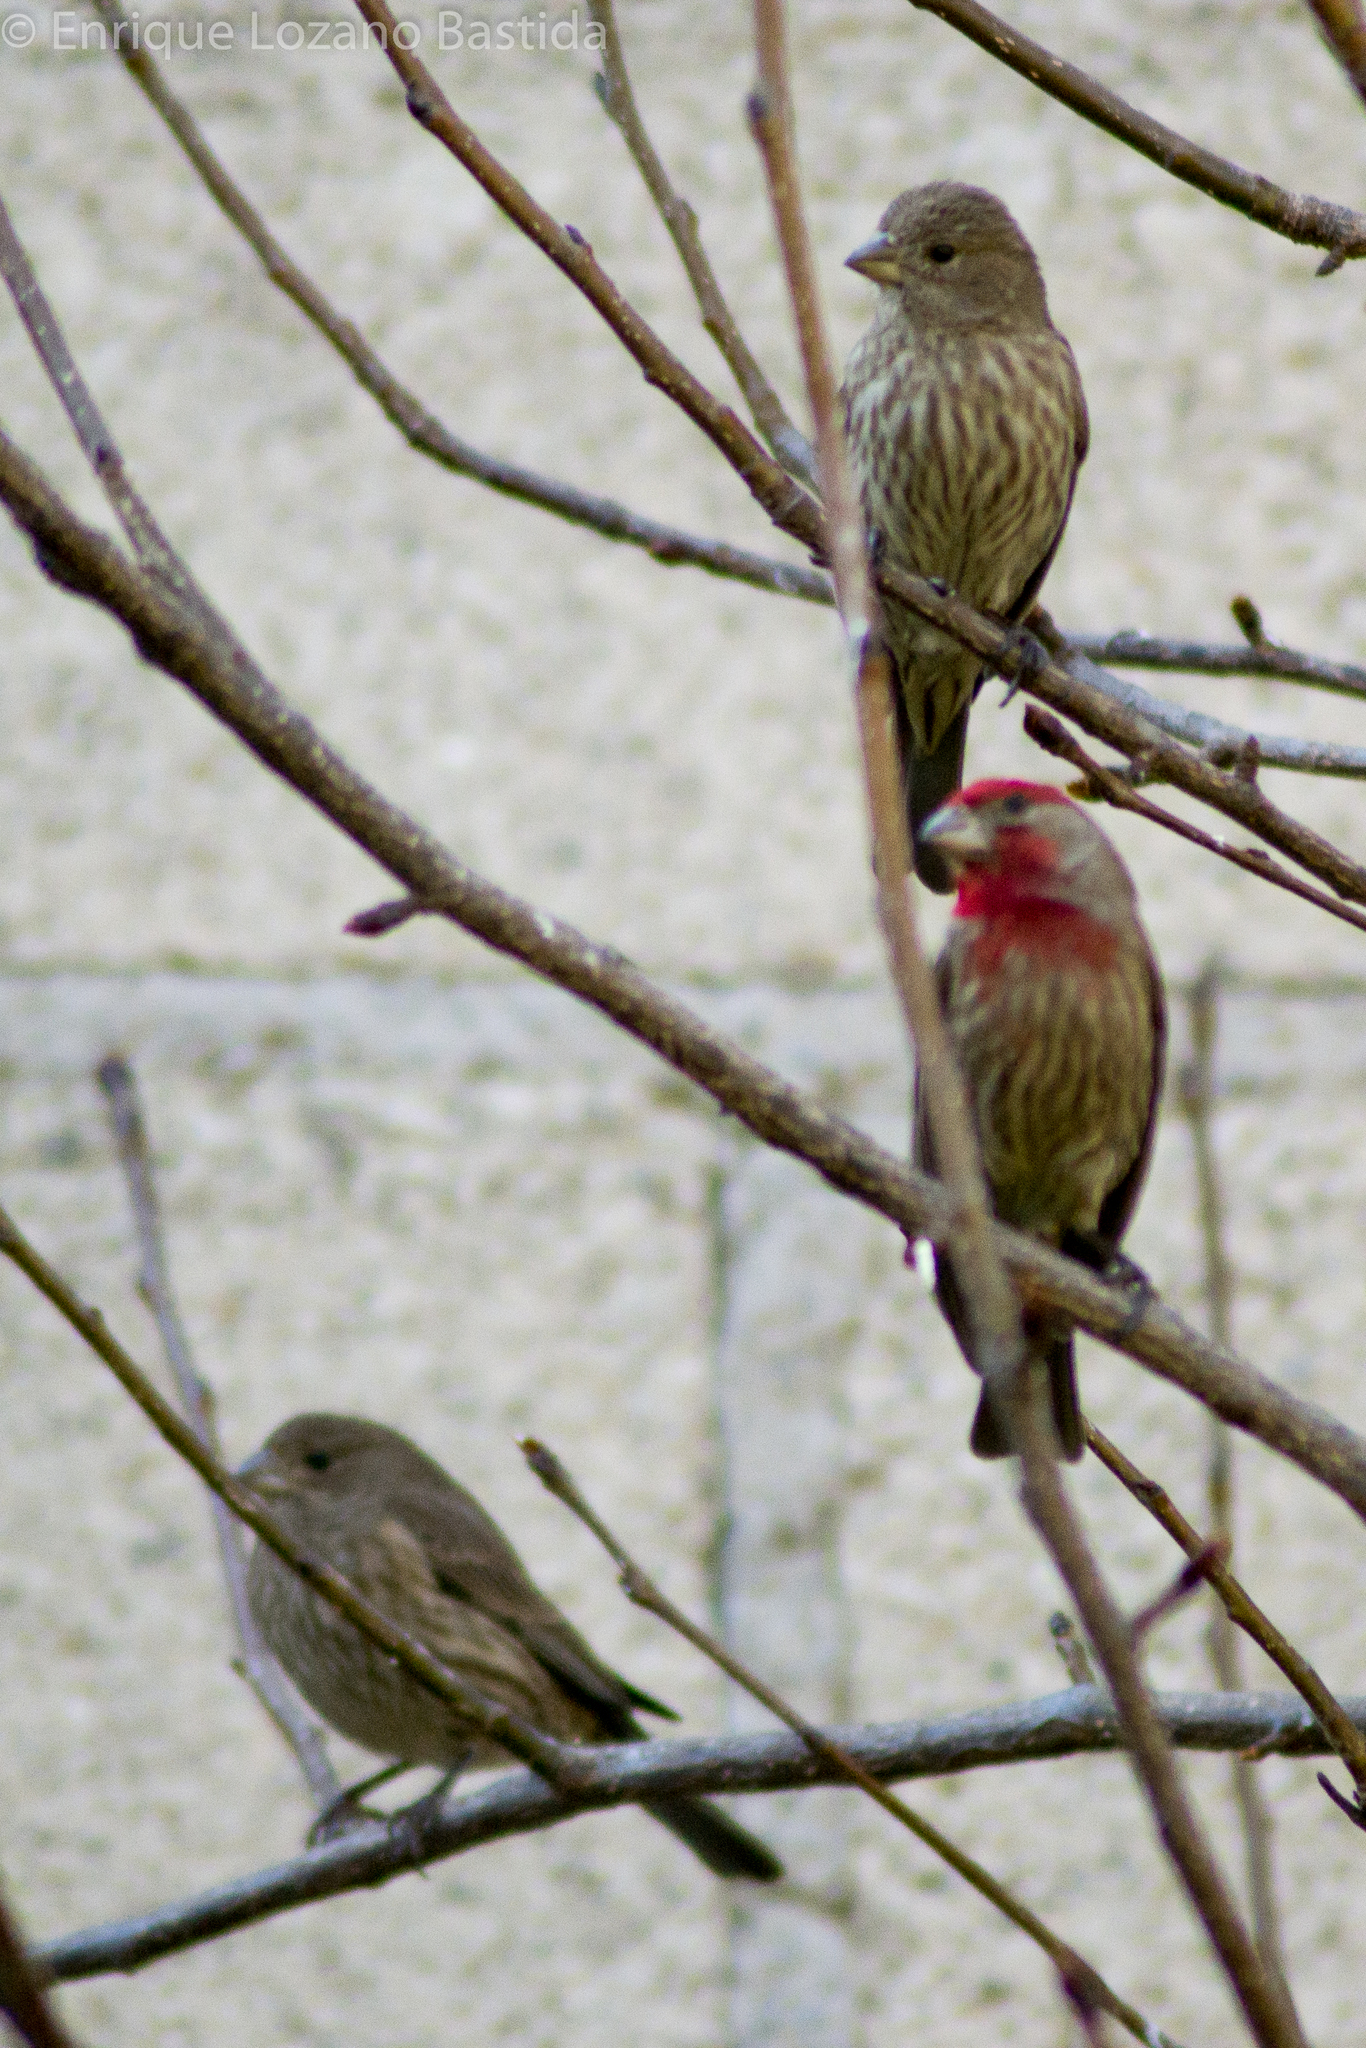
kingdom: Animalia
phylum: Chordata
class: Aves
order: Passeriformes
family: Fringillidae
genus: Haemorhous
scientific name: Haemorhous mexicanus
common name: House finch
